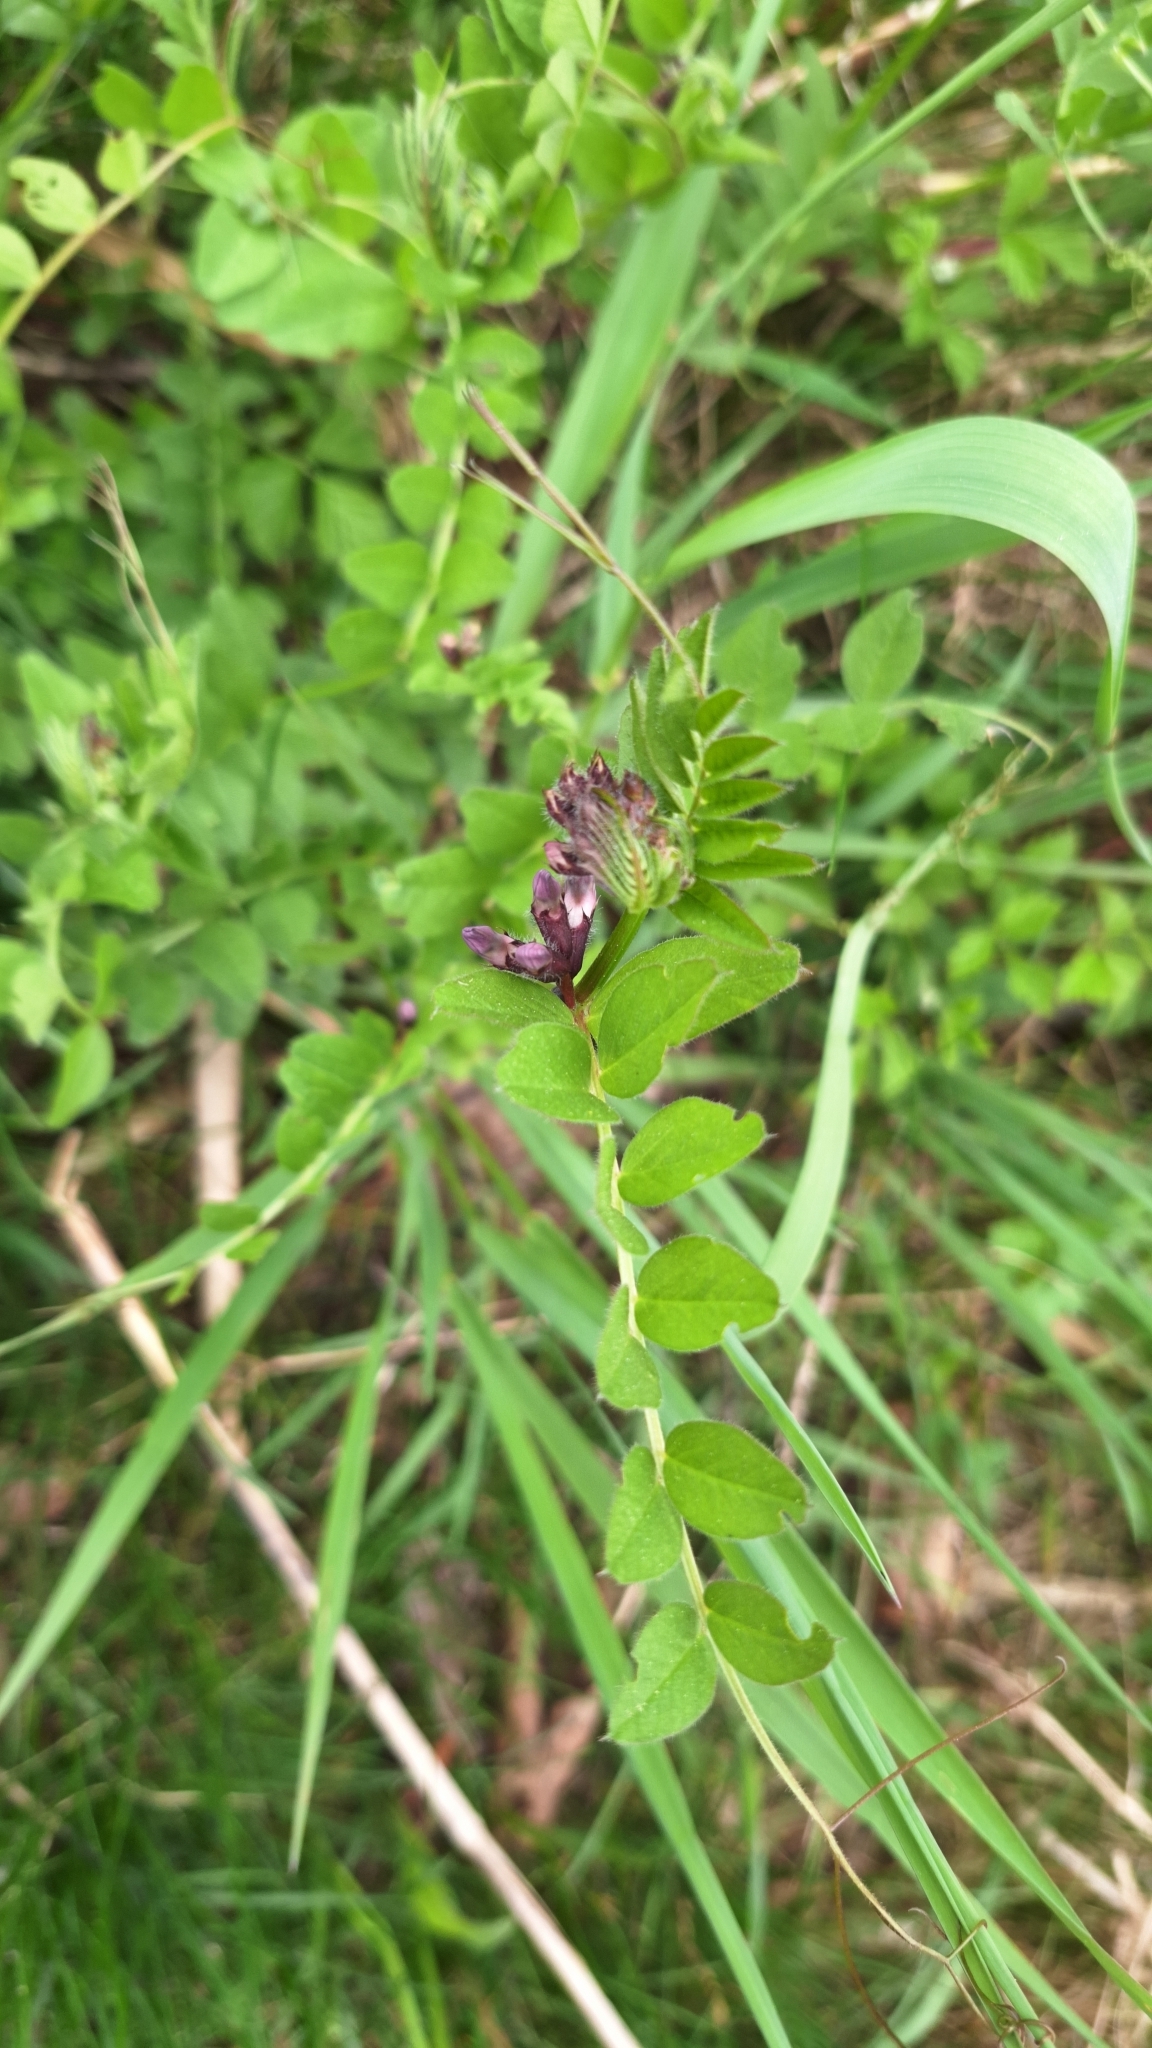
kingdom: Plantae
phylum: Tracheophyta
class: Magnoliopsida
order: Fabales
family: Fabaceae
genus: Vicia
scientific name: Vicia sepium
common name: Bush vetch
